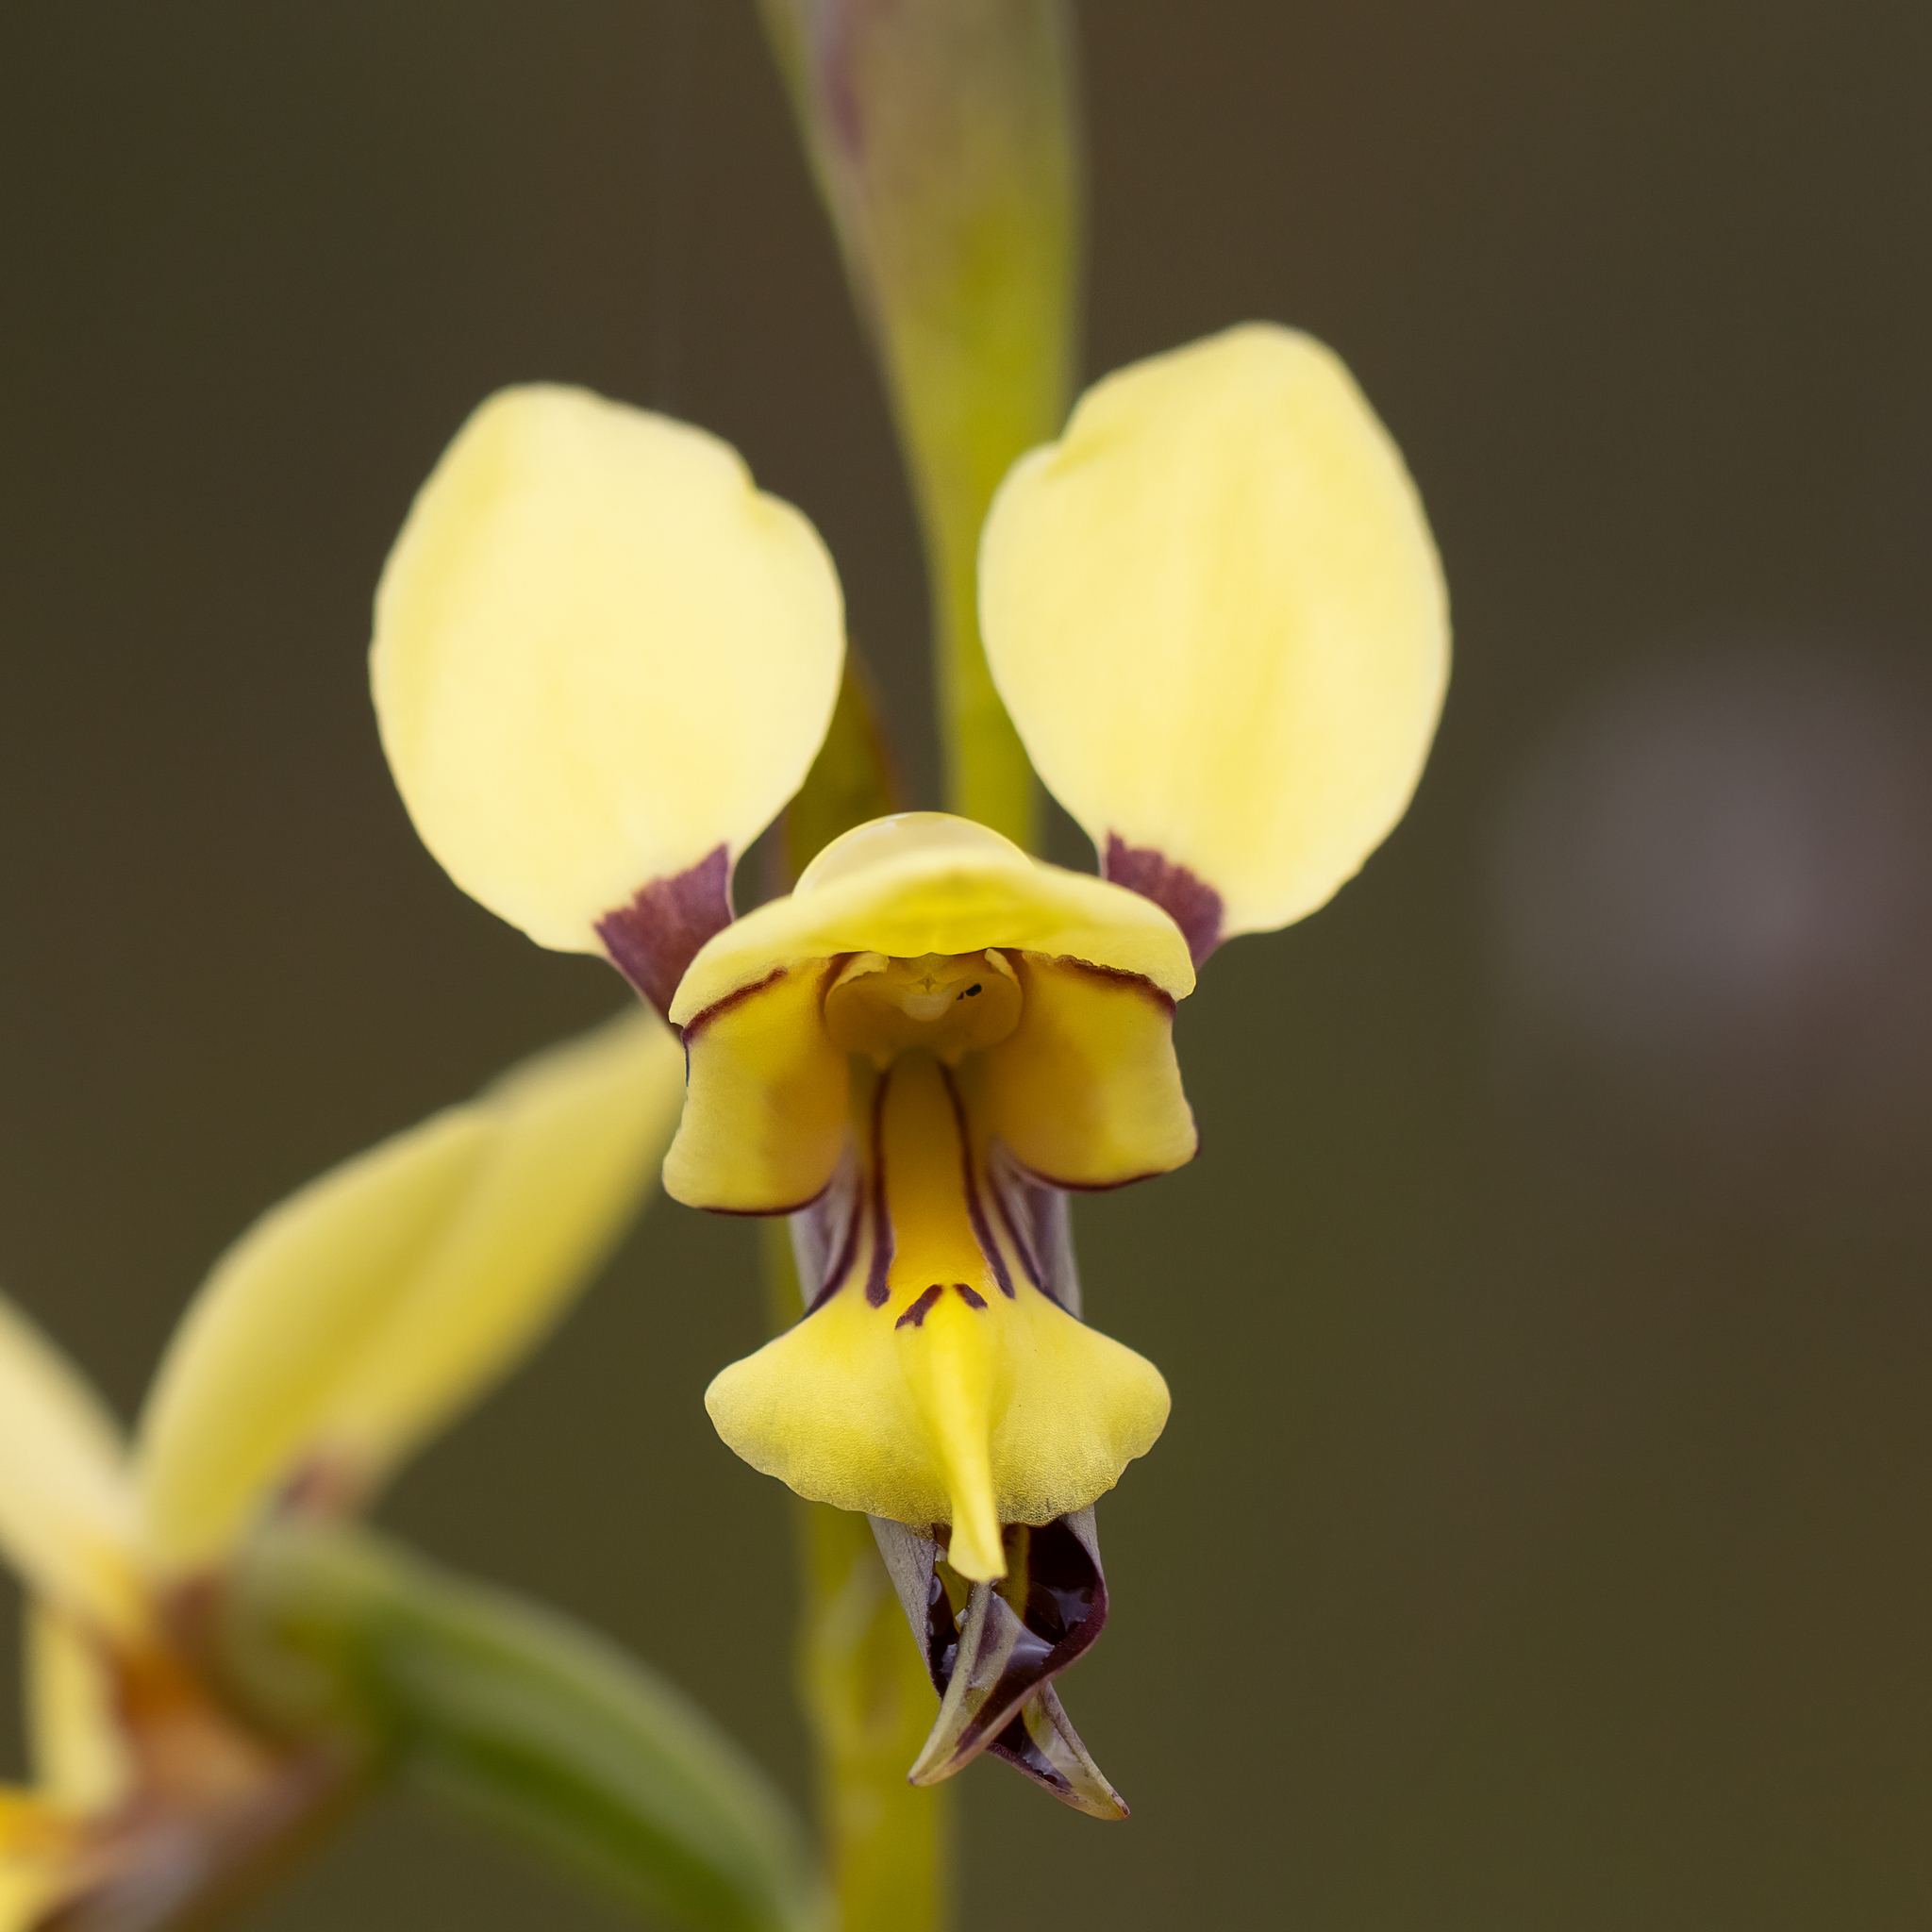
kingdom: Plantae
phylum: Tracheophyta
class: Liliopsida
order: Asparagales
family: Orchidaceae
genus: Diuris
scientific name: Diuris setacea
